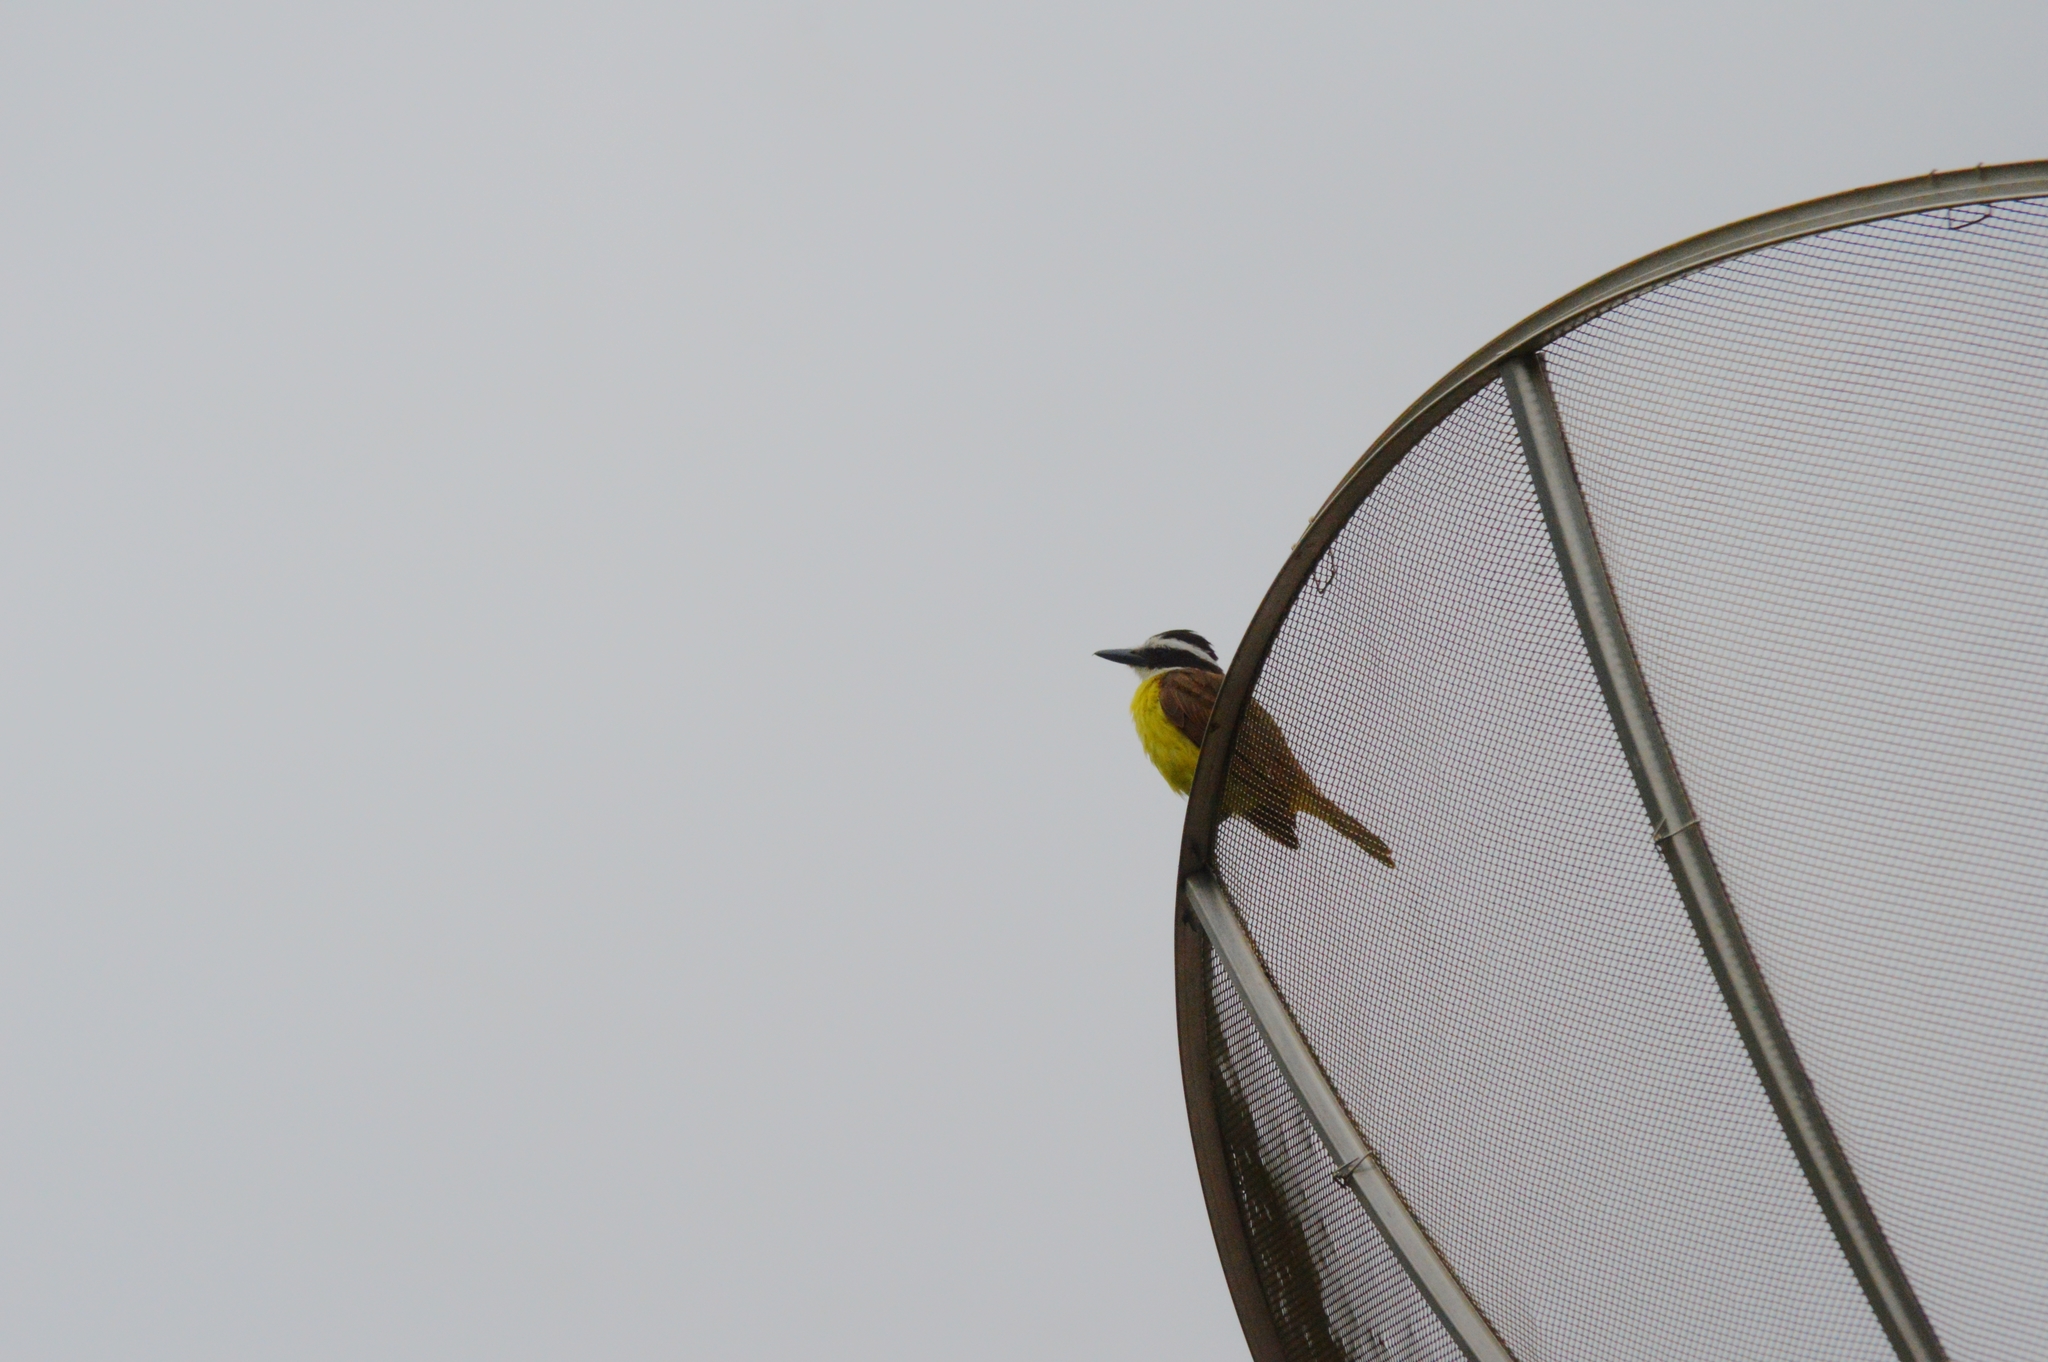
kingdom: Animalia
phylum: Chordata
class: Aves
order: Passeriformes
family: Tyrannidae
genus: Pitangus
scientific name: Pitangus sulphuratus
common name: Great kiskadee
